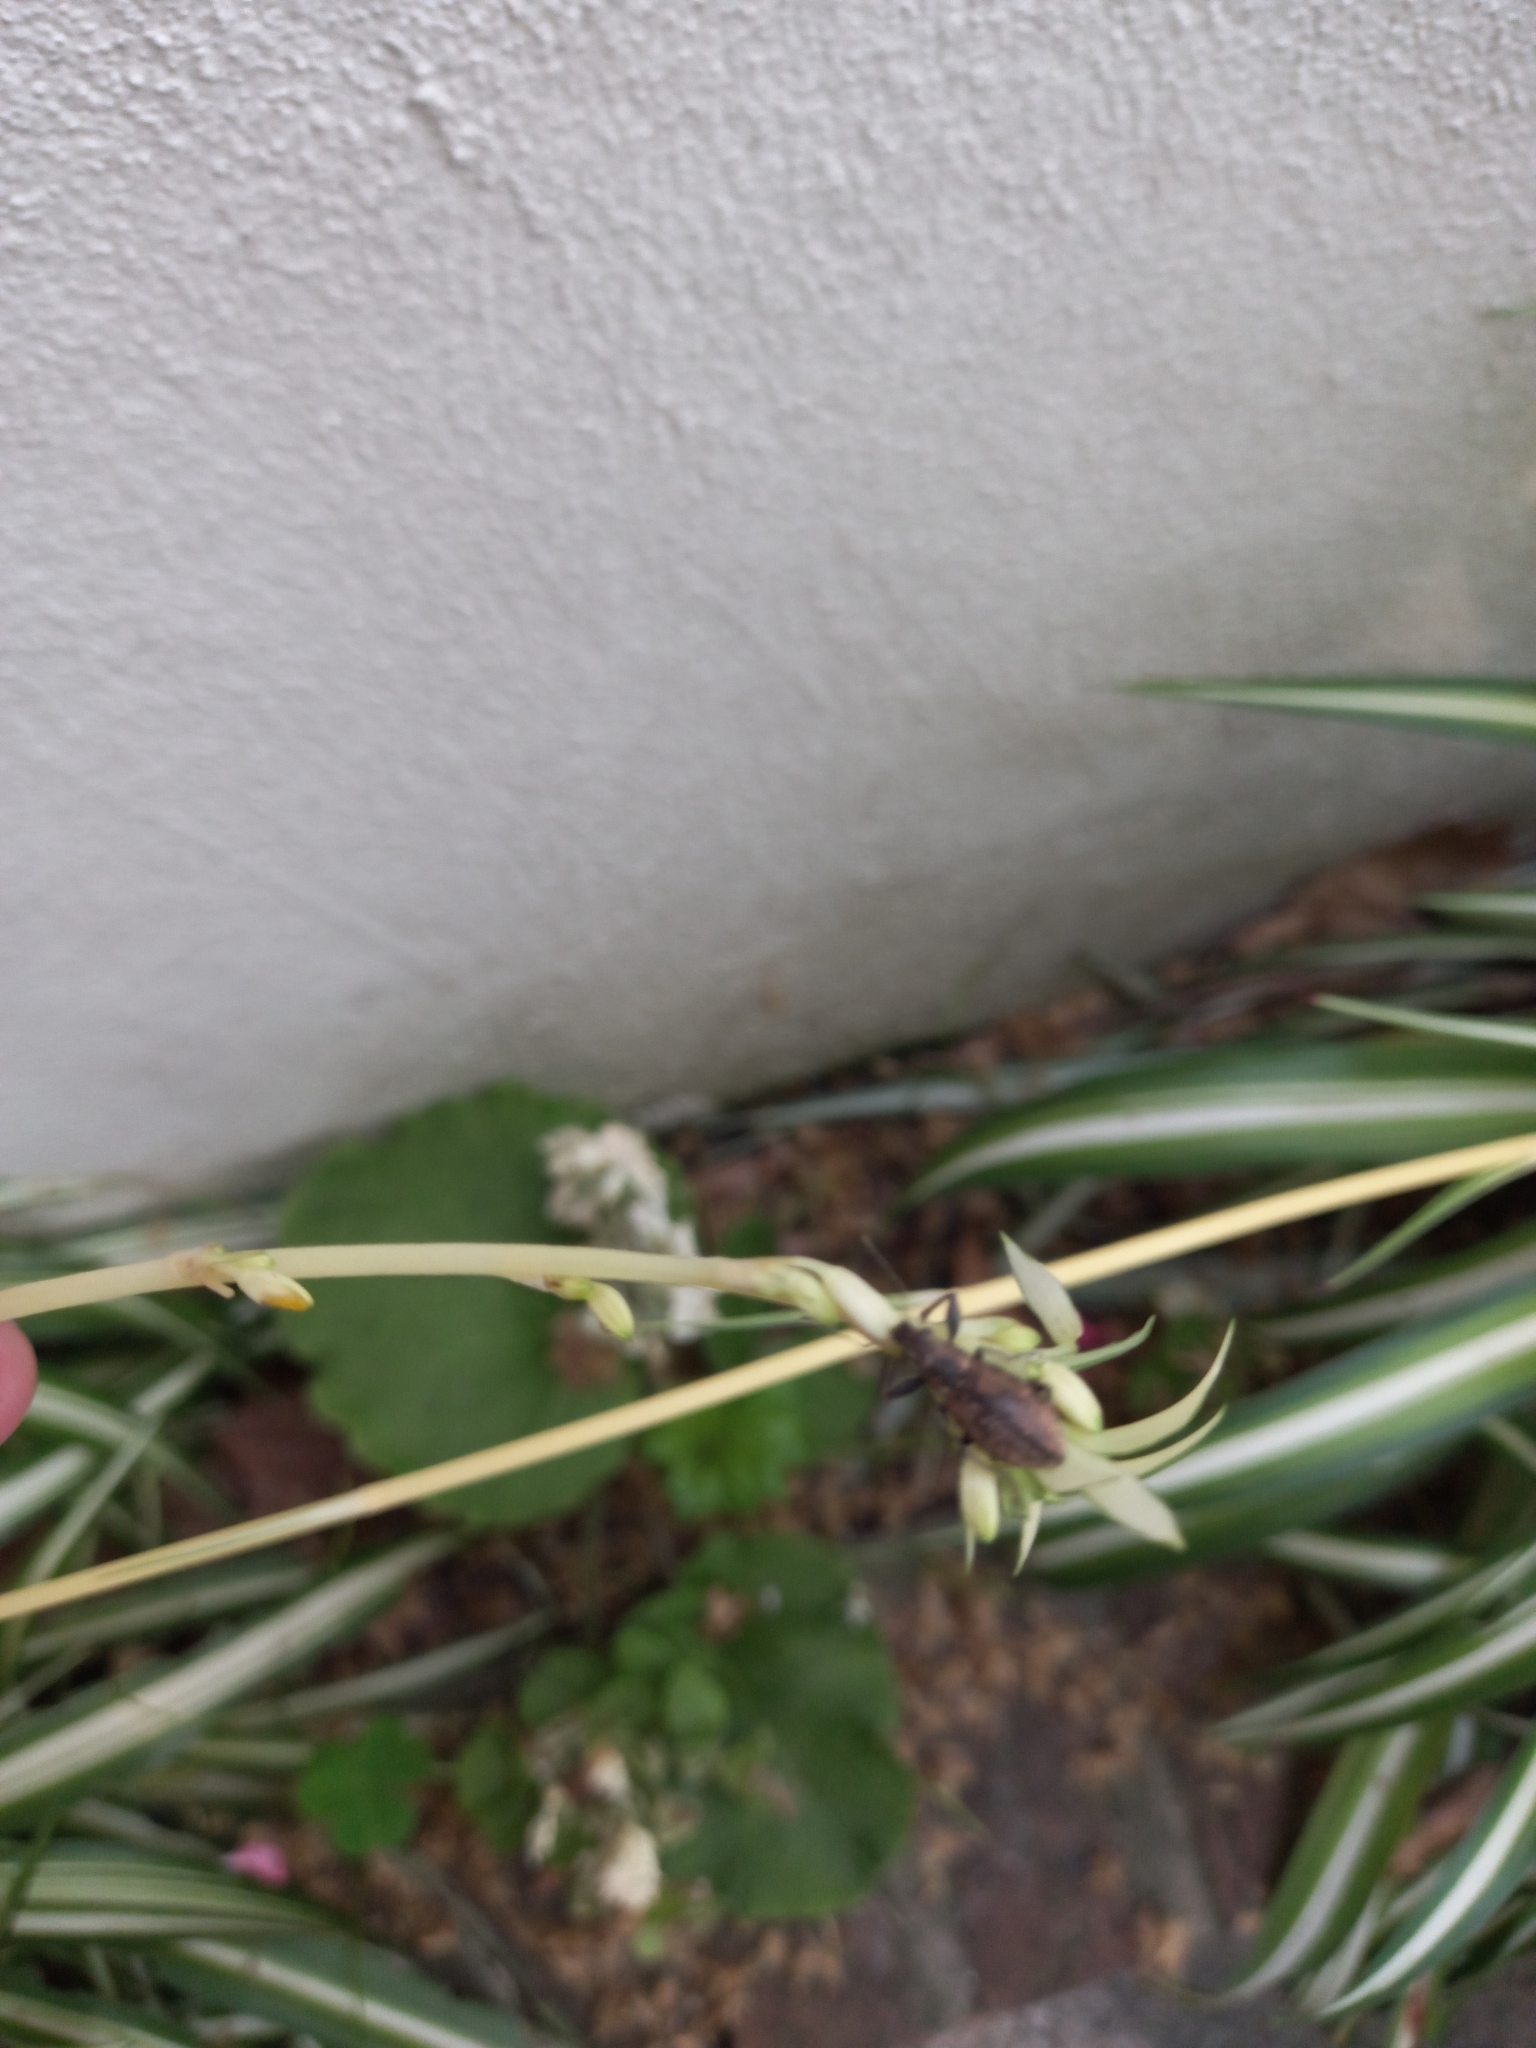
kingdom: Animalia
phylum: Arthropoda
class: Insecta
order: Coleoptera
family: Curculionidae
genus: Naupactus
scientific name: Naupactus versatilis
